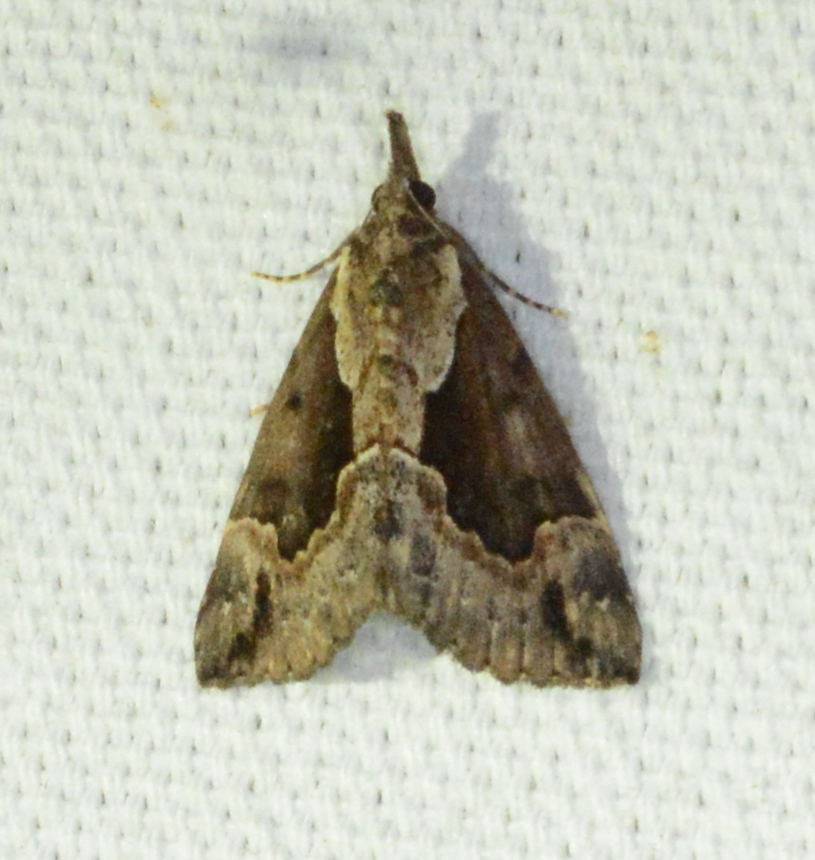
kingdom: Animalia
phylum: Arthropoda
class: Insecta
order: Lepidoptera
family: Erebidae
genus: Hypena
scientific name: Hypena baltimoralis
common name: Baltimore snout
